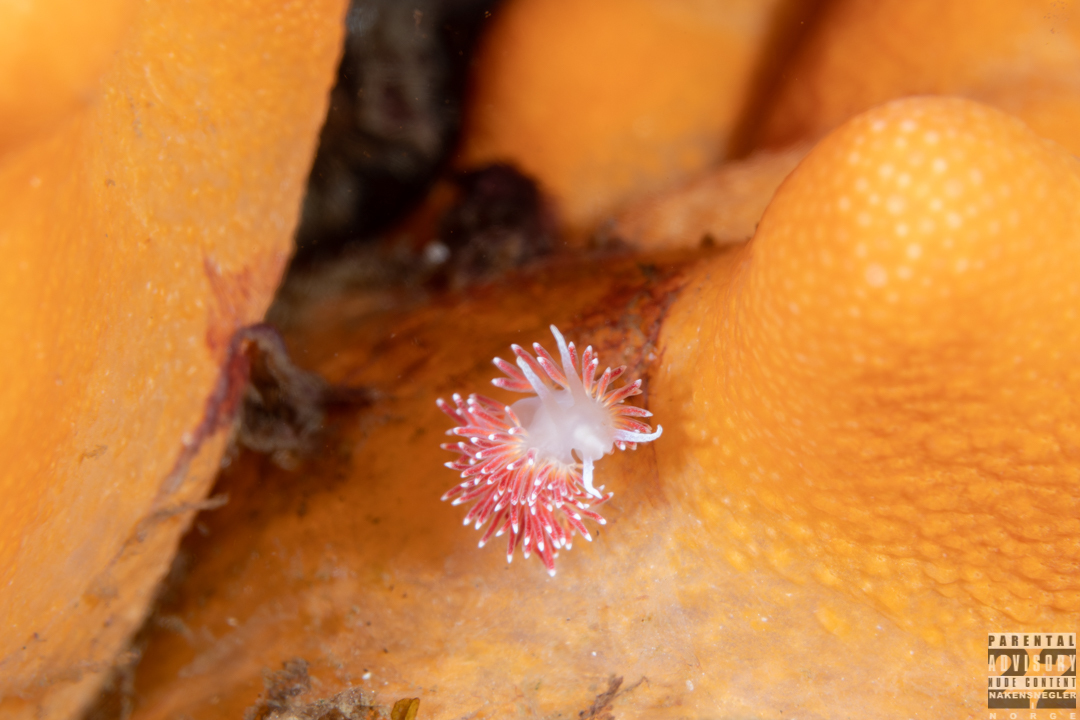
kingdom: Animalia
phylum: Mollusca
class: Gastropoda
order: Nudibranchia
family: Flabellinidae
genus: Carronella
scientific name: Carronella pellucida
